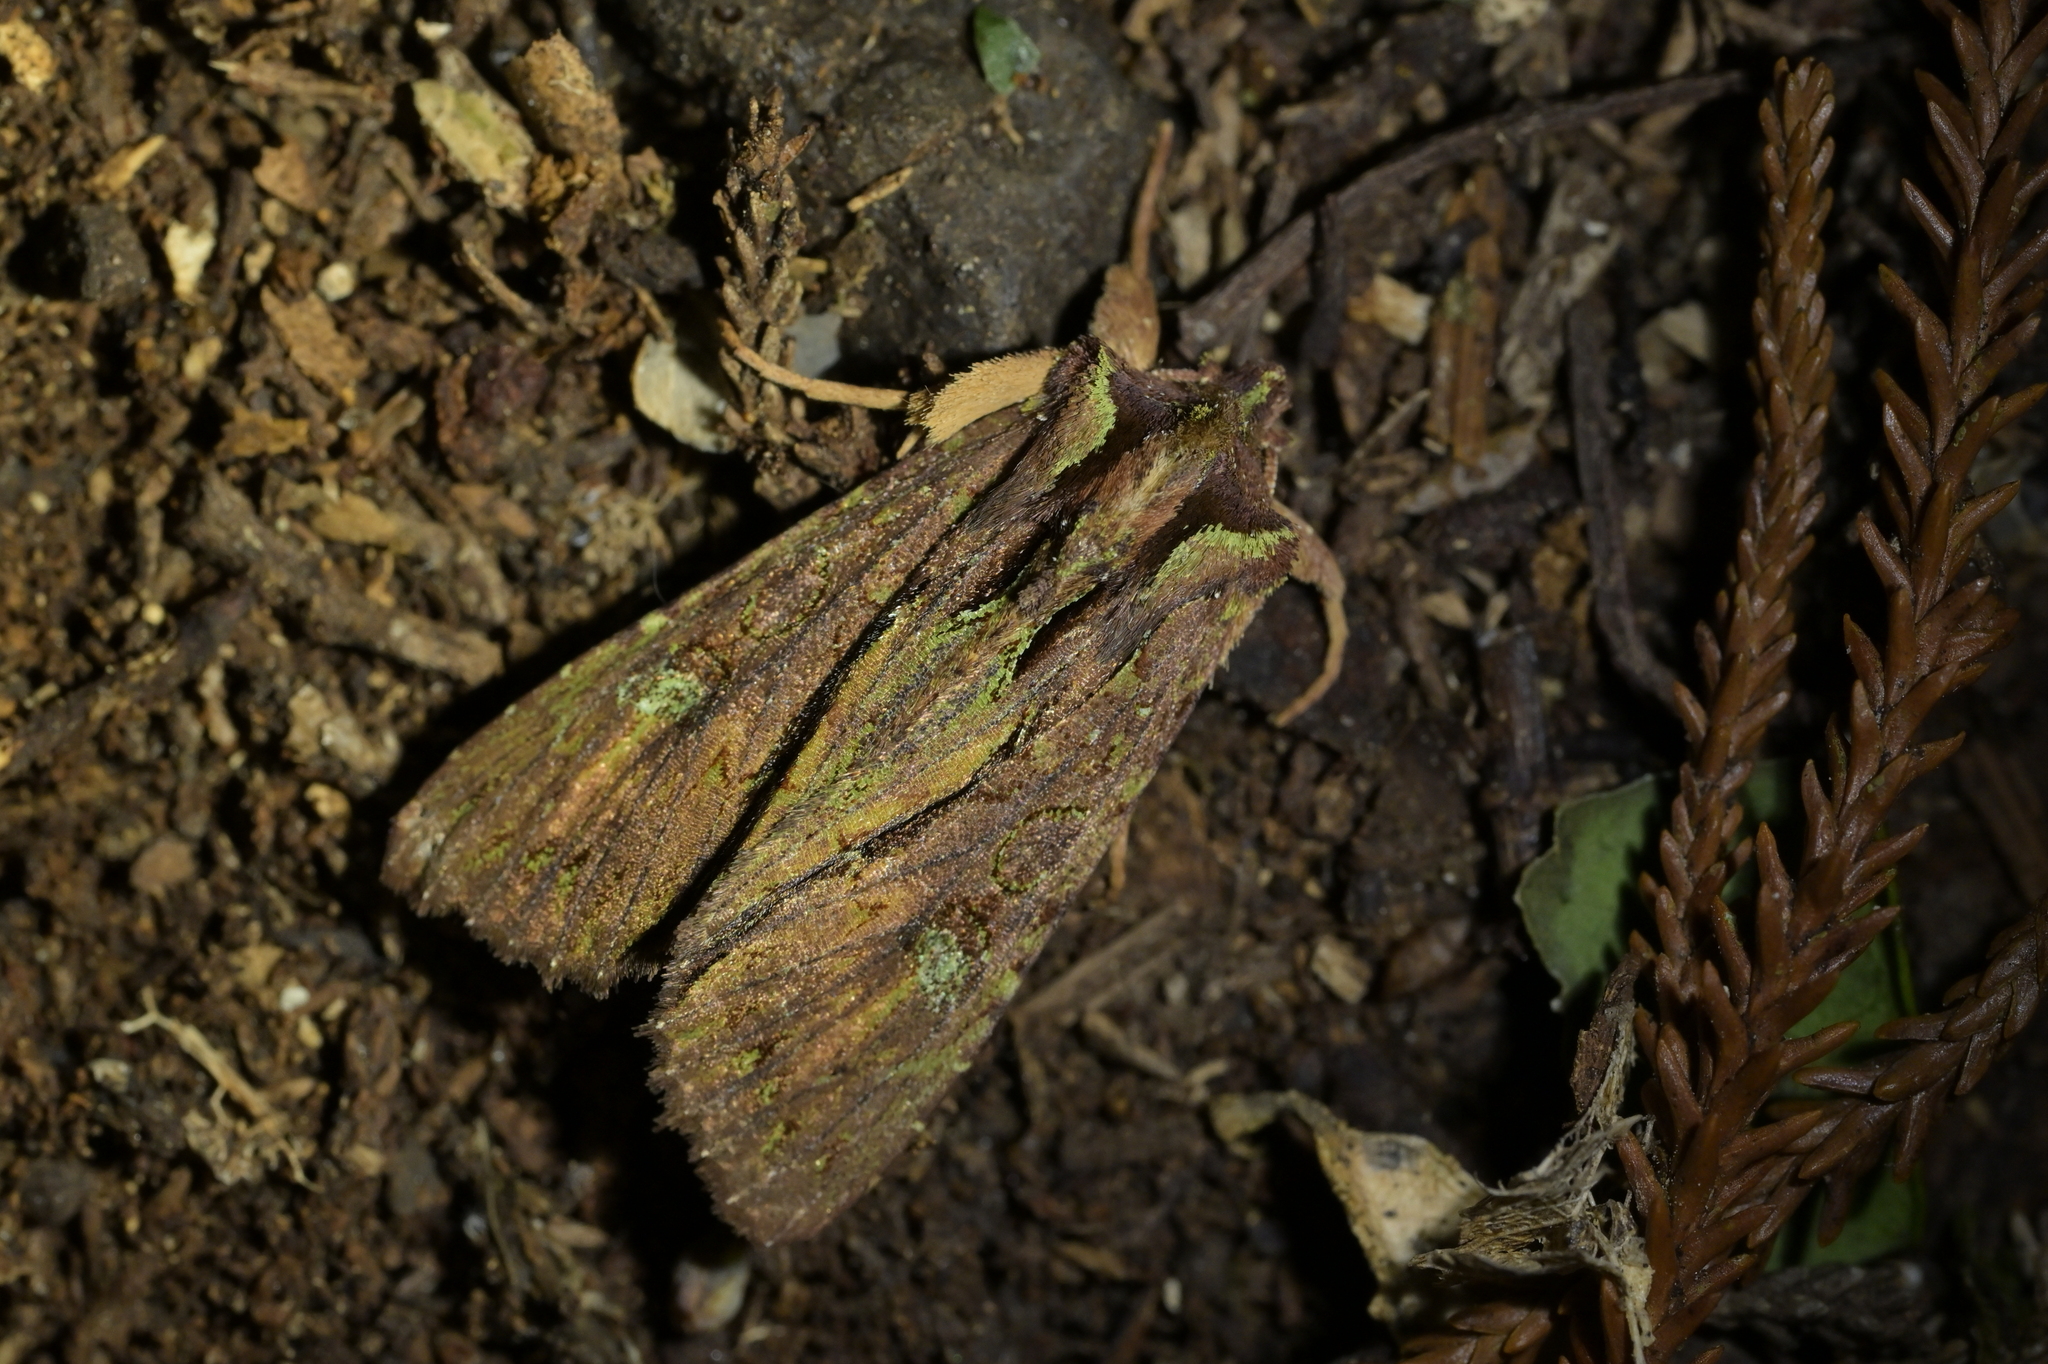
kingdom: Animalia
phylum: Arthropoda
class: Insecta
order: Lepidoptera
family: Noctuidae
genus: Meterana
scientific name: Meterana diatmeta
